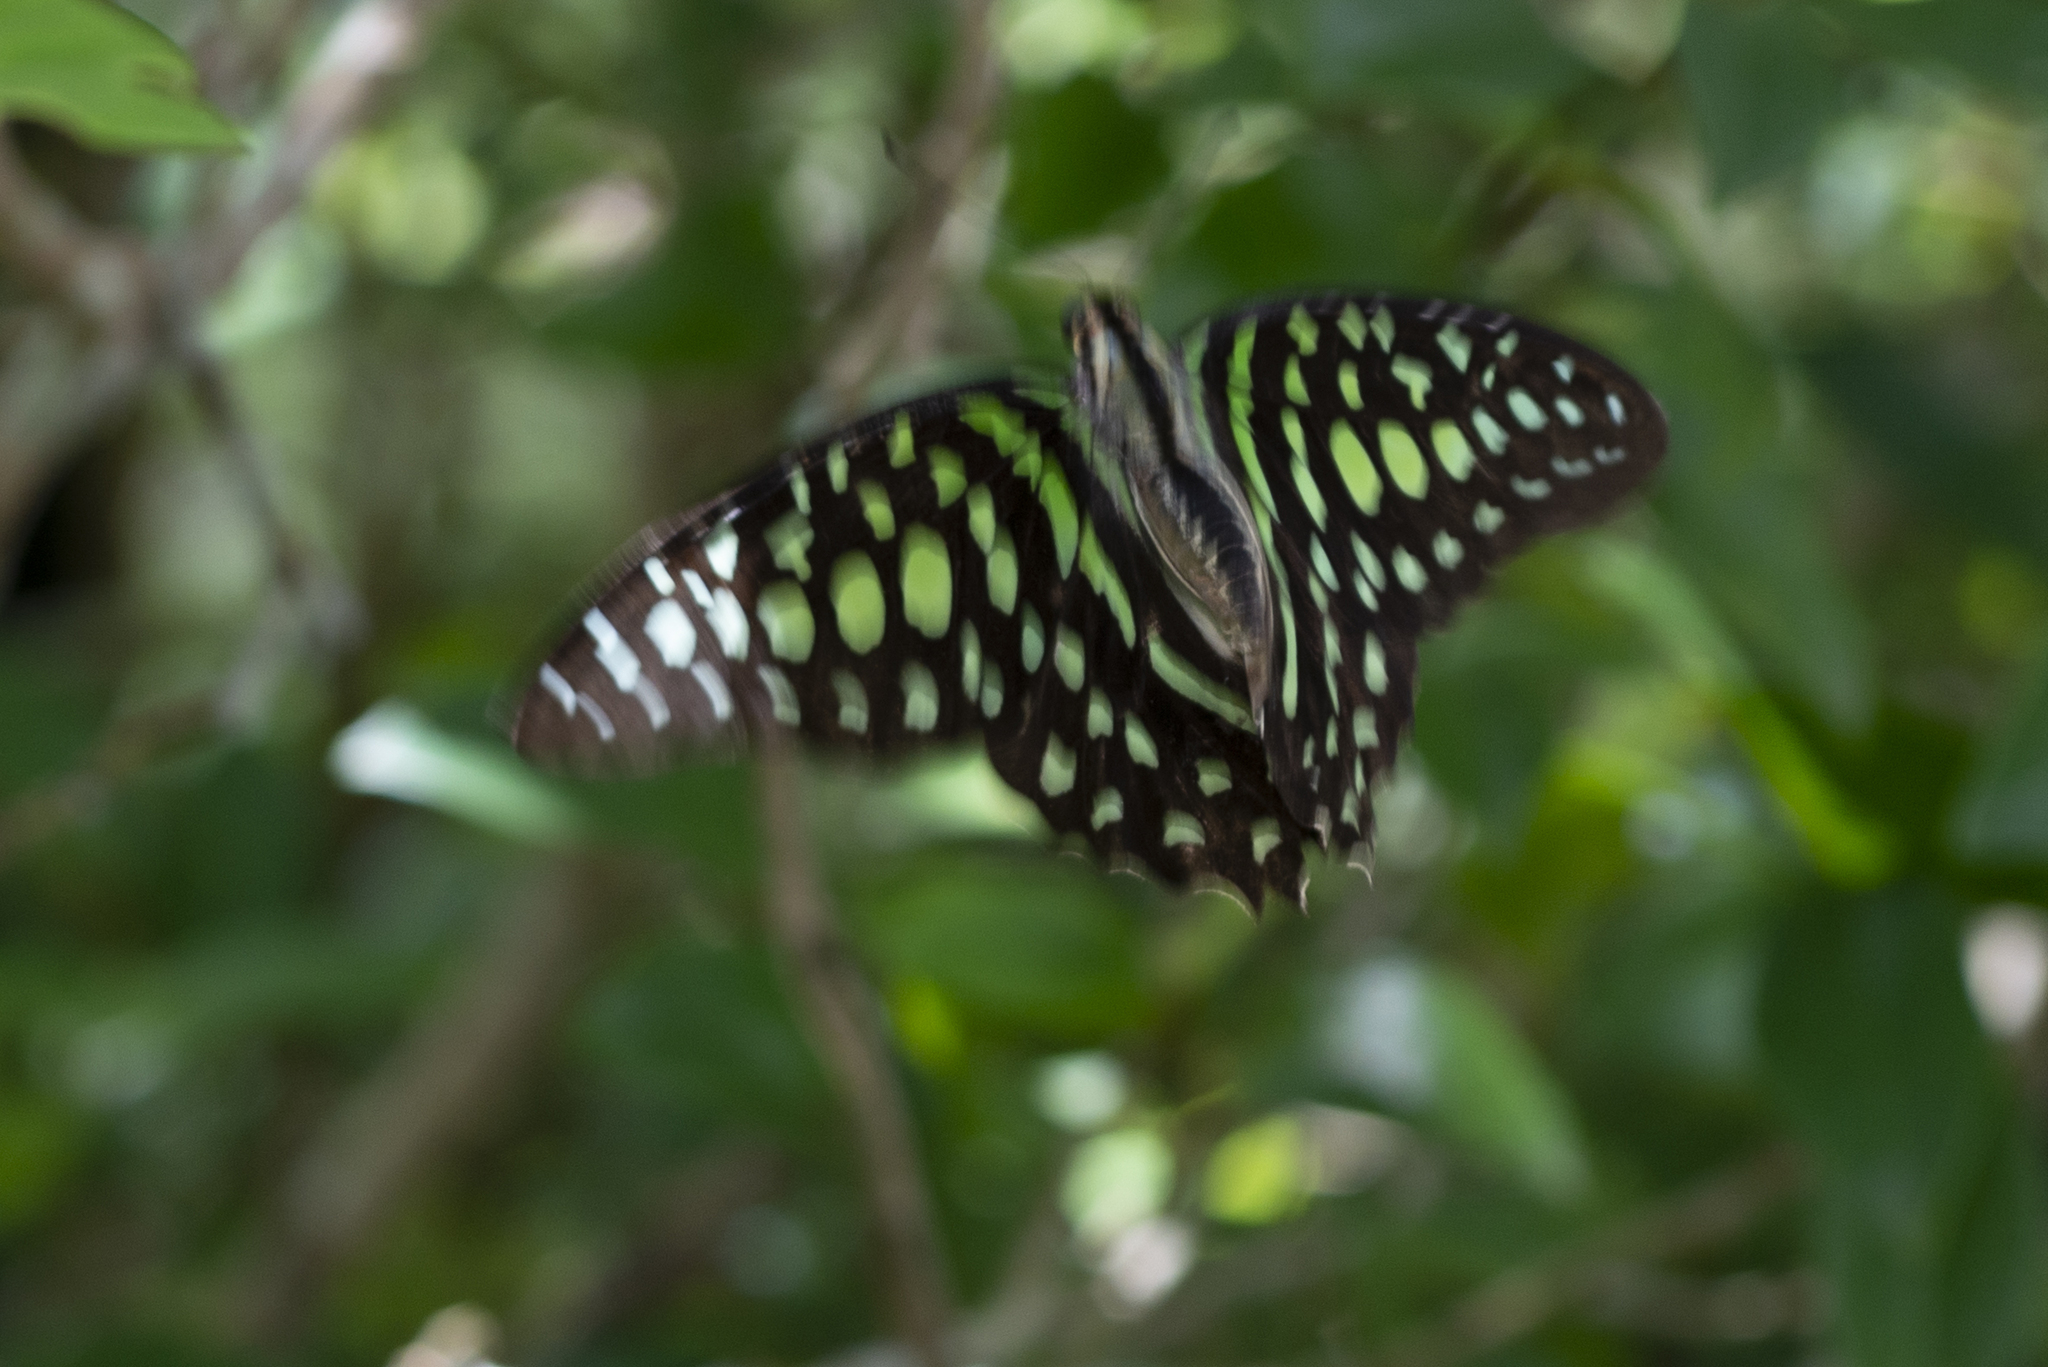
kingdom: Animalia
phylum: Arthropoda
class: Insecta
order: Lepidoptera
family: Papilionidae
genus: Graphium
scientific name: Graphium agamemnon
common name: Tailed jay
